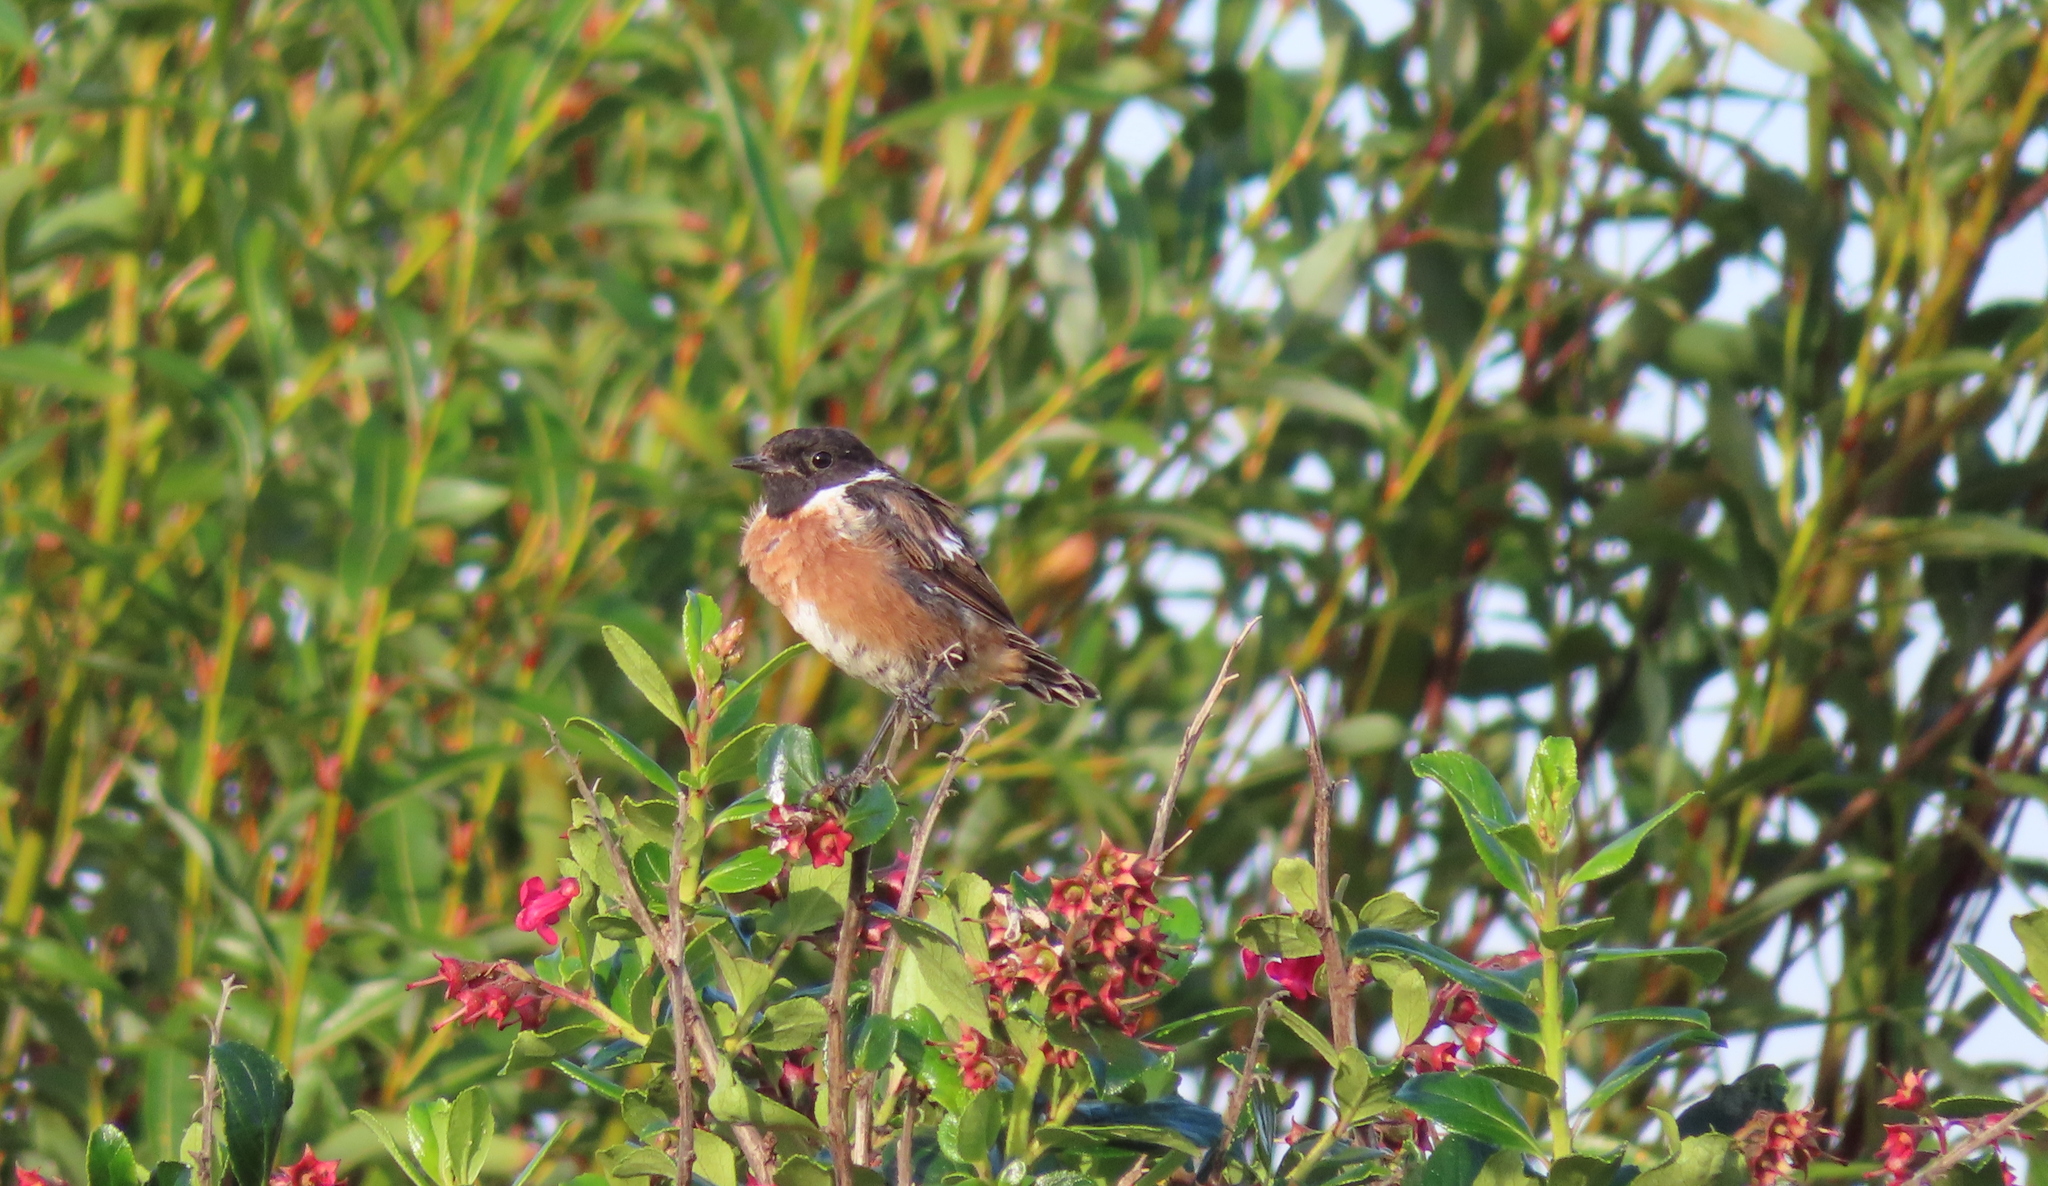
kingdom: Animalia
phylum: Chordata
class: Aves
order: Passeriformes
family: Muscicapidae
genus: Saxicola
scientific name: Saxicola rubicola
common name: European stonechat
